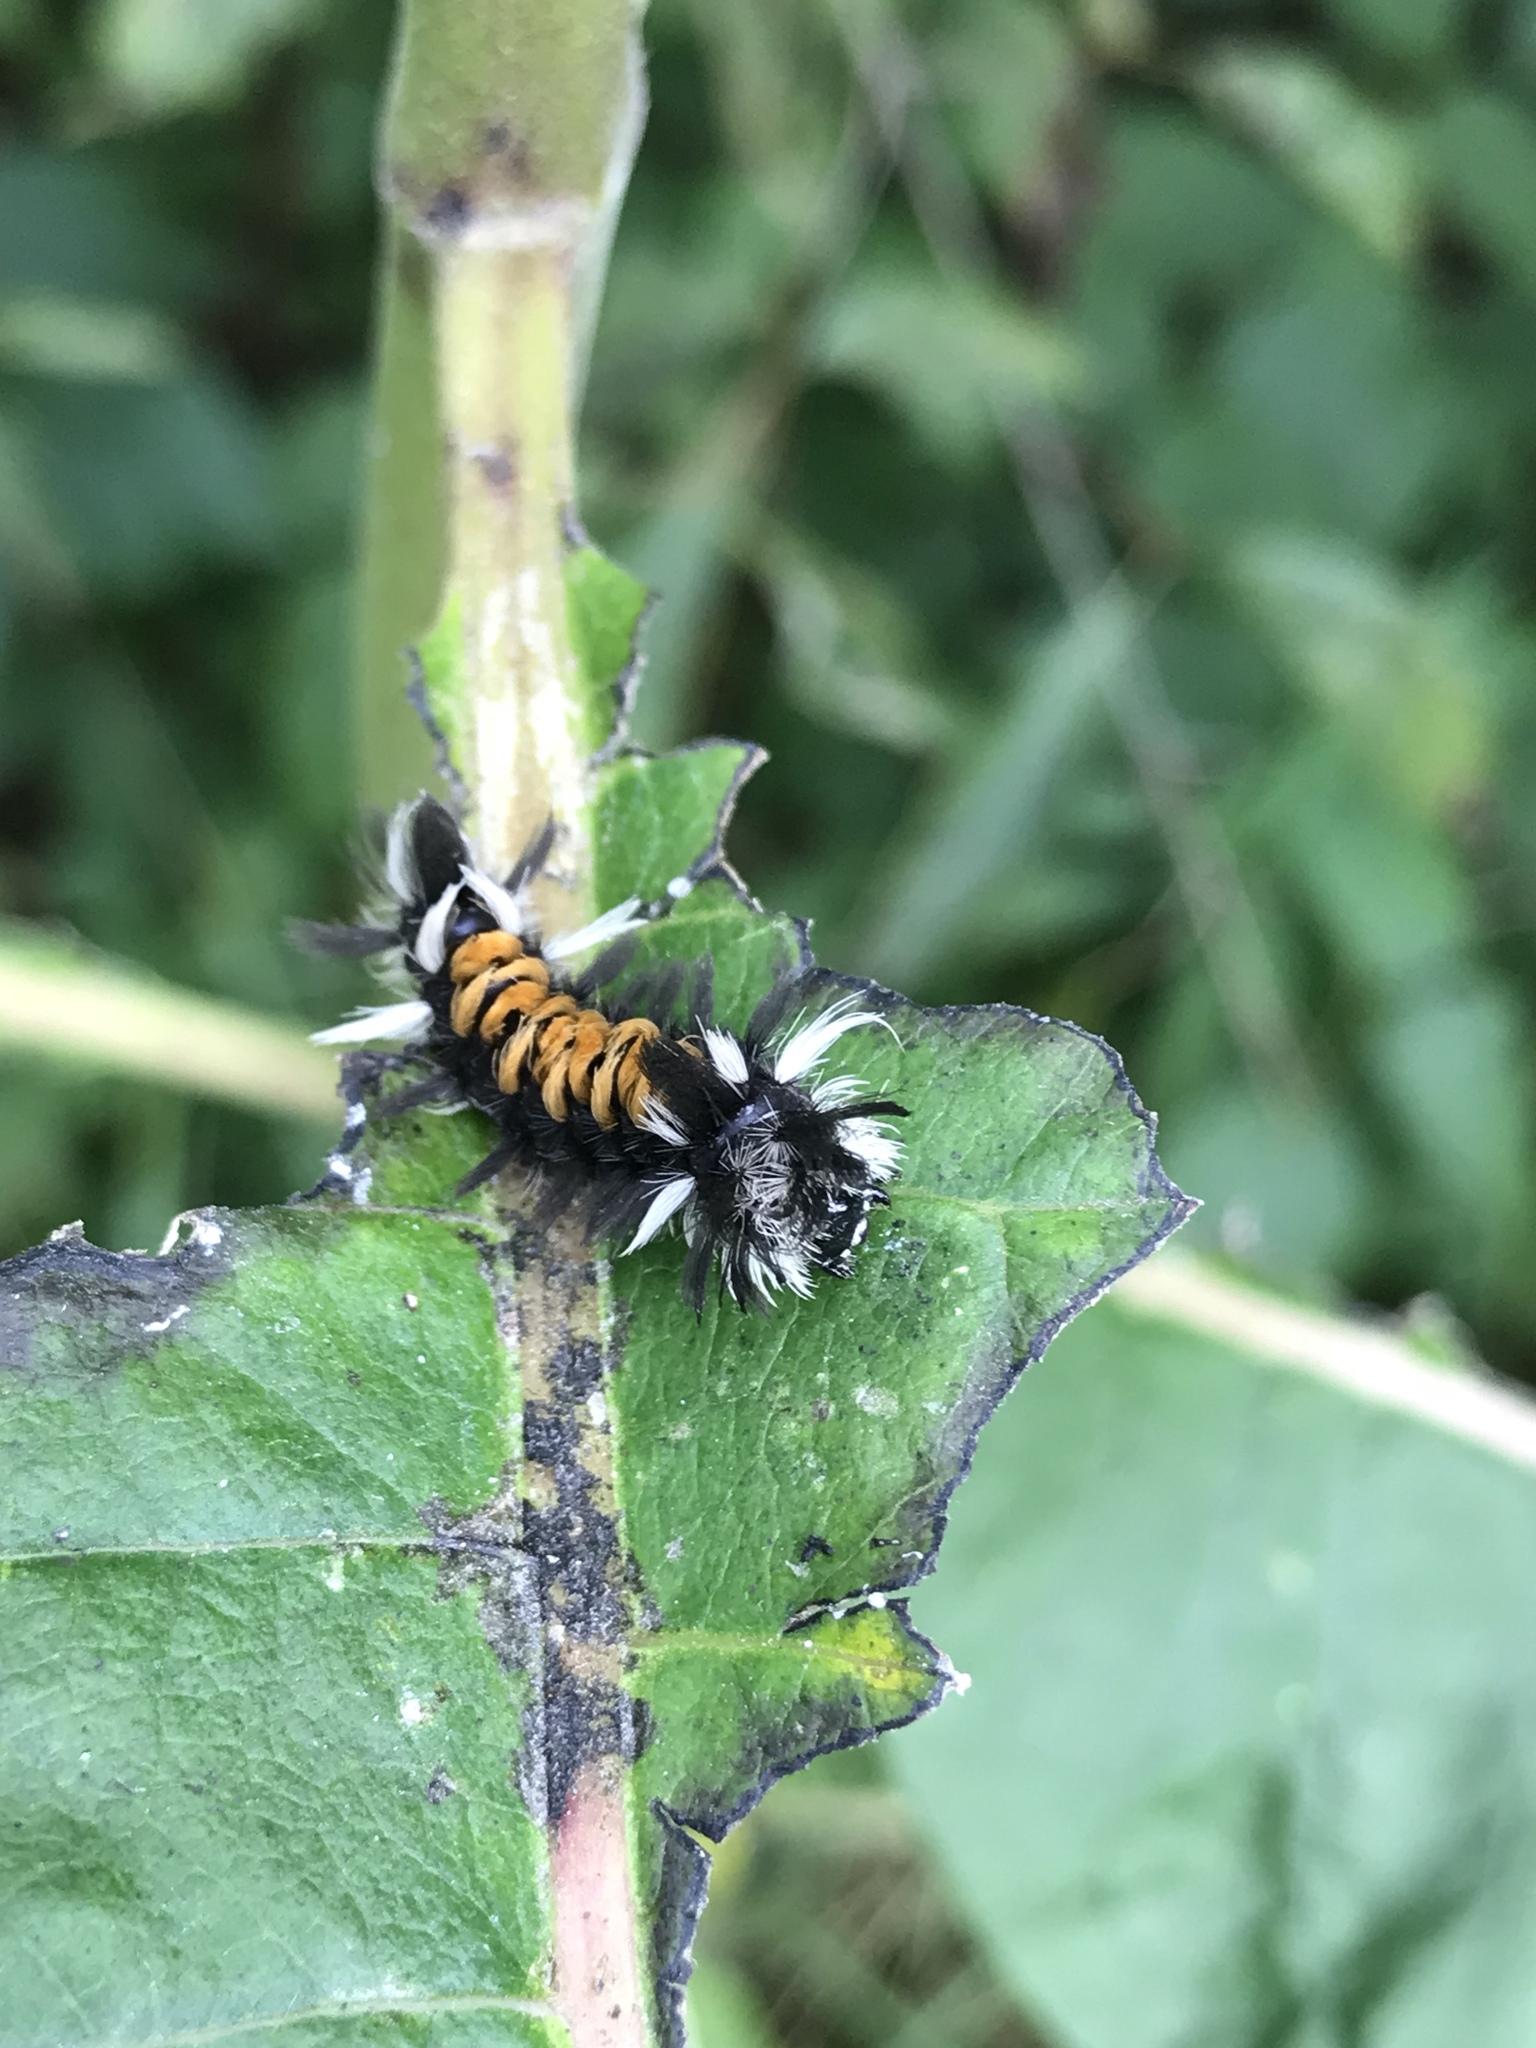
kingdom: Animalia
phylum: Arthropoda
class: Insecta
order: Lepidoptera
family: Erebidae
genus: Euchaetes
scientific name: Euchaetes egle
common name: Milkweed tussock moth
